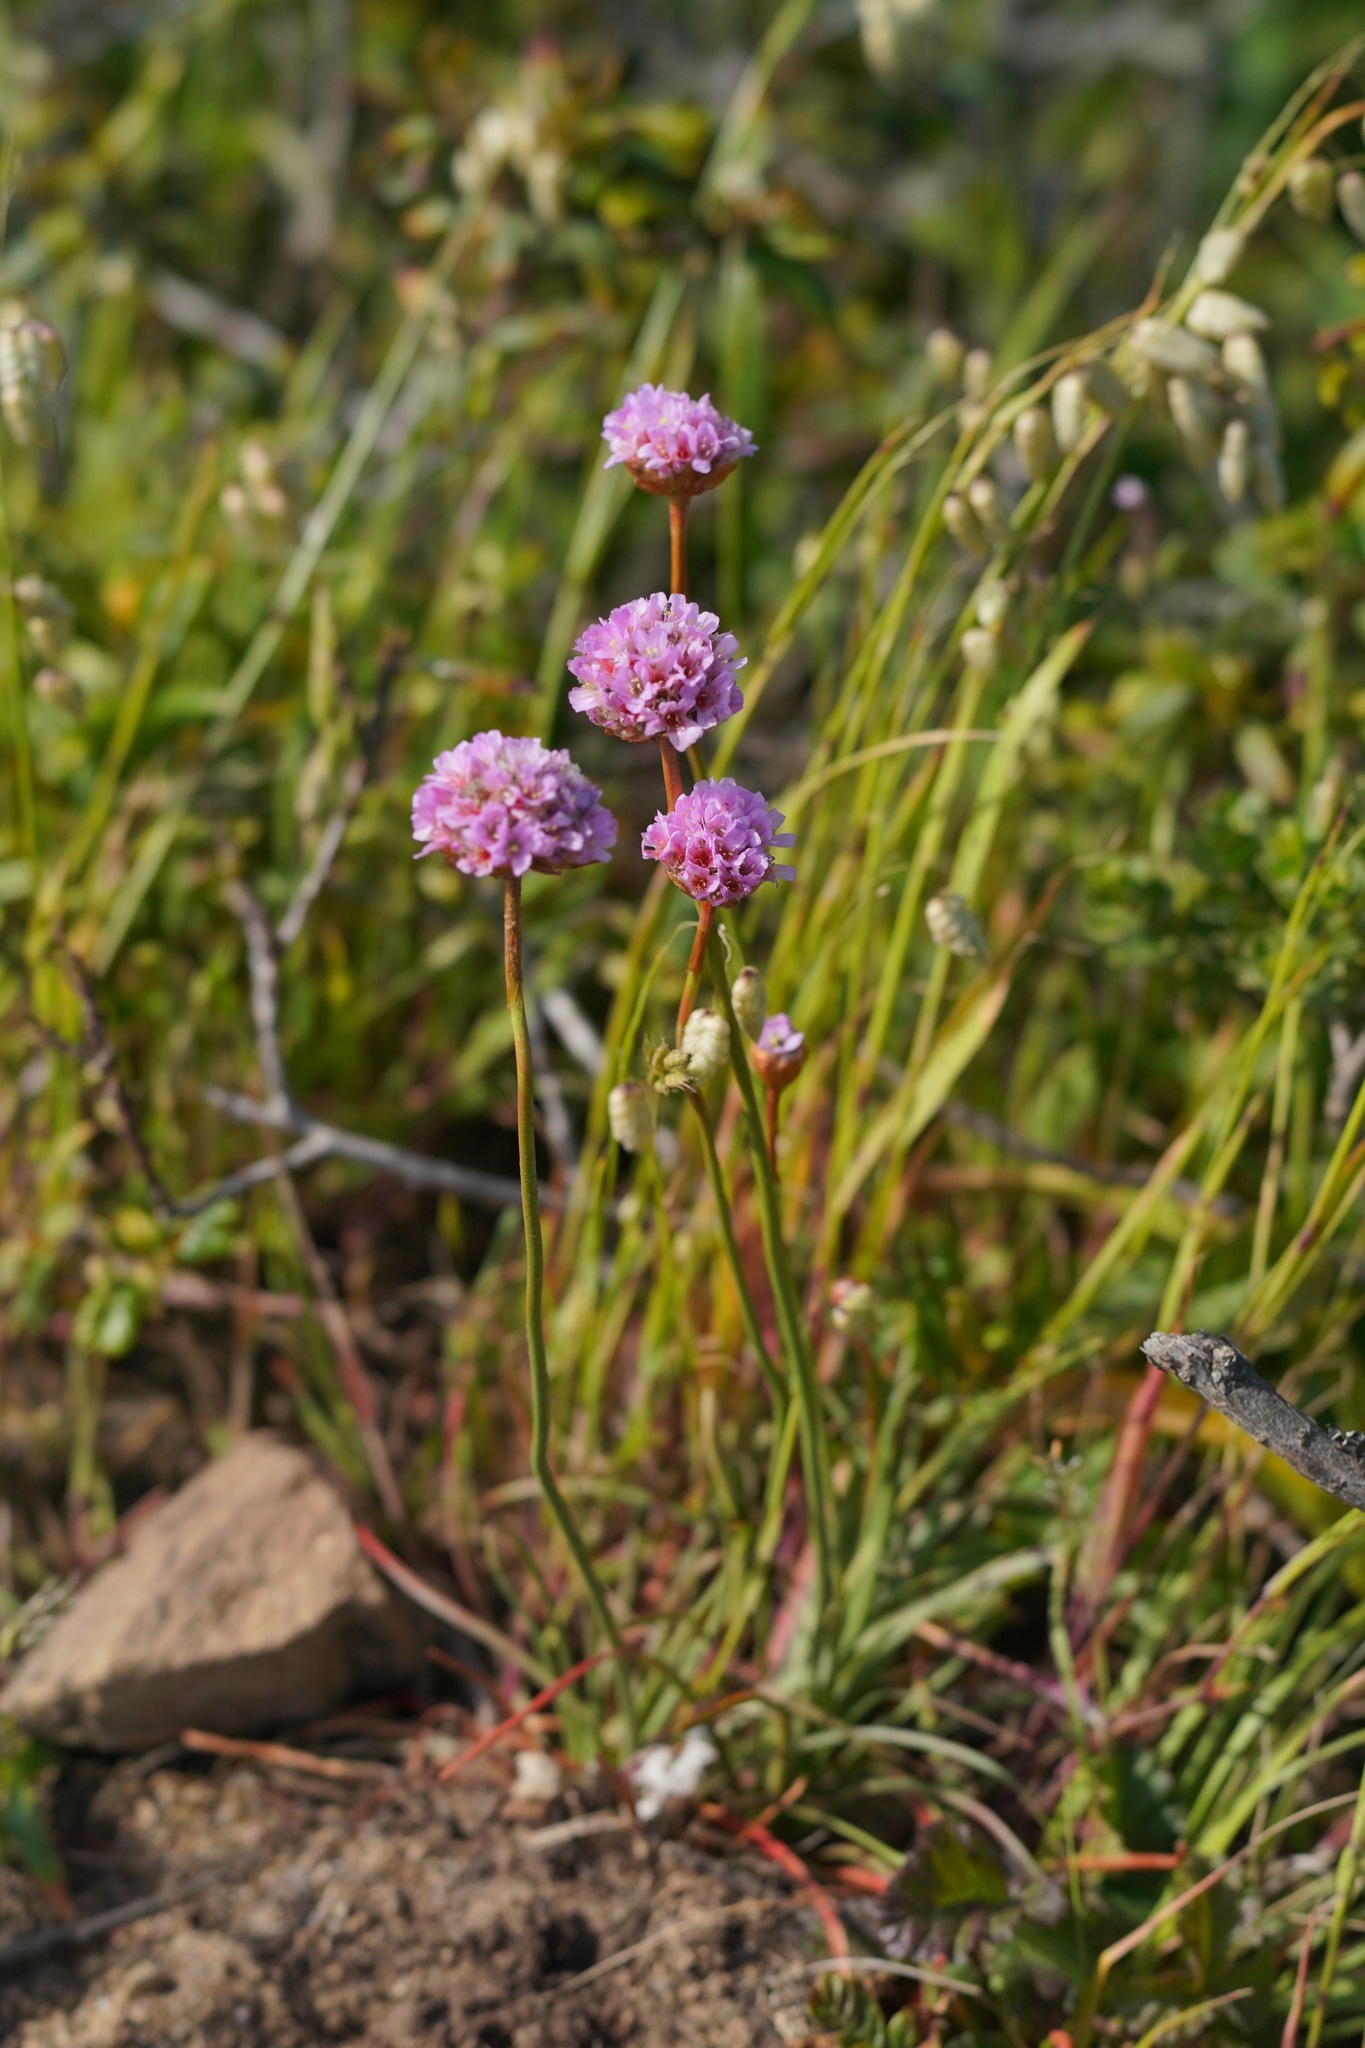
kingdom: Plantae
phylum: Tracheophyta
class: Magnoliopsida
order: Caryophyllales
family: Plumbaginaceae
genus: Armeria
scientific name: Armeria maritima
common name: Thrift
